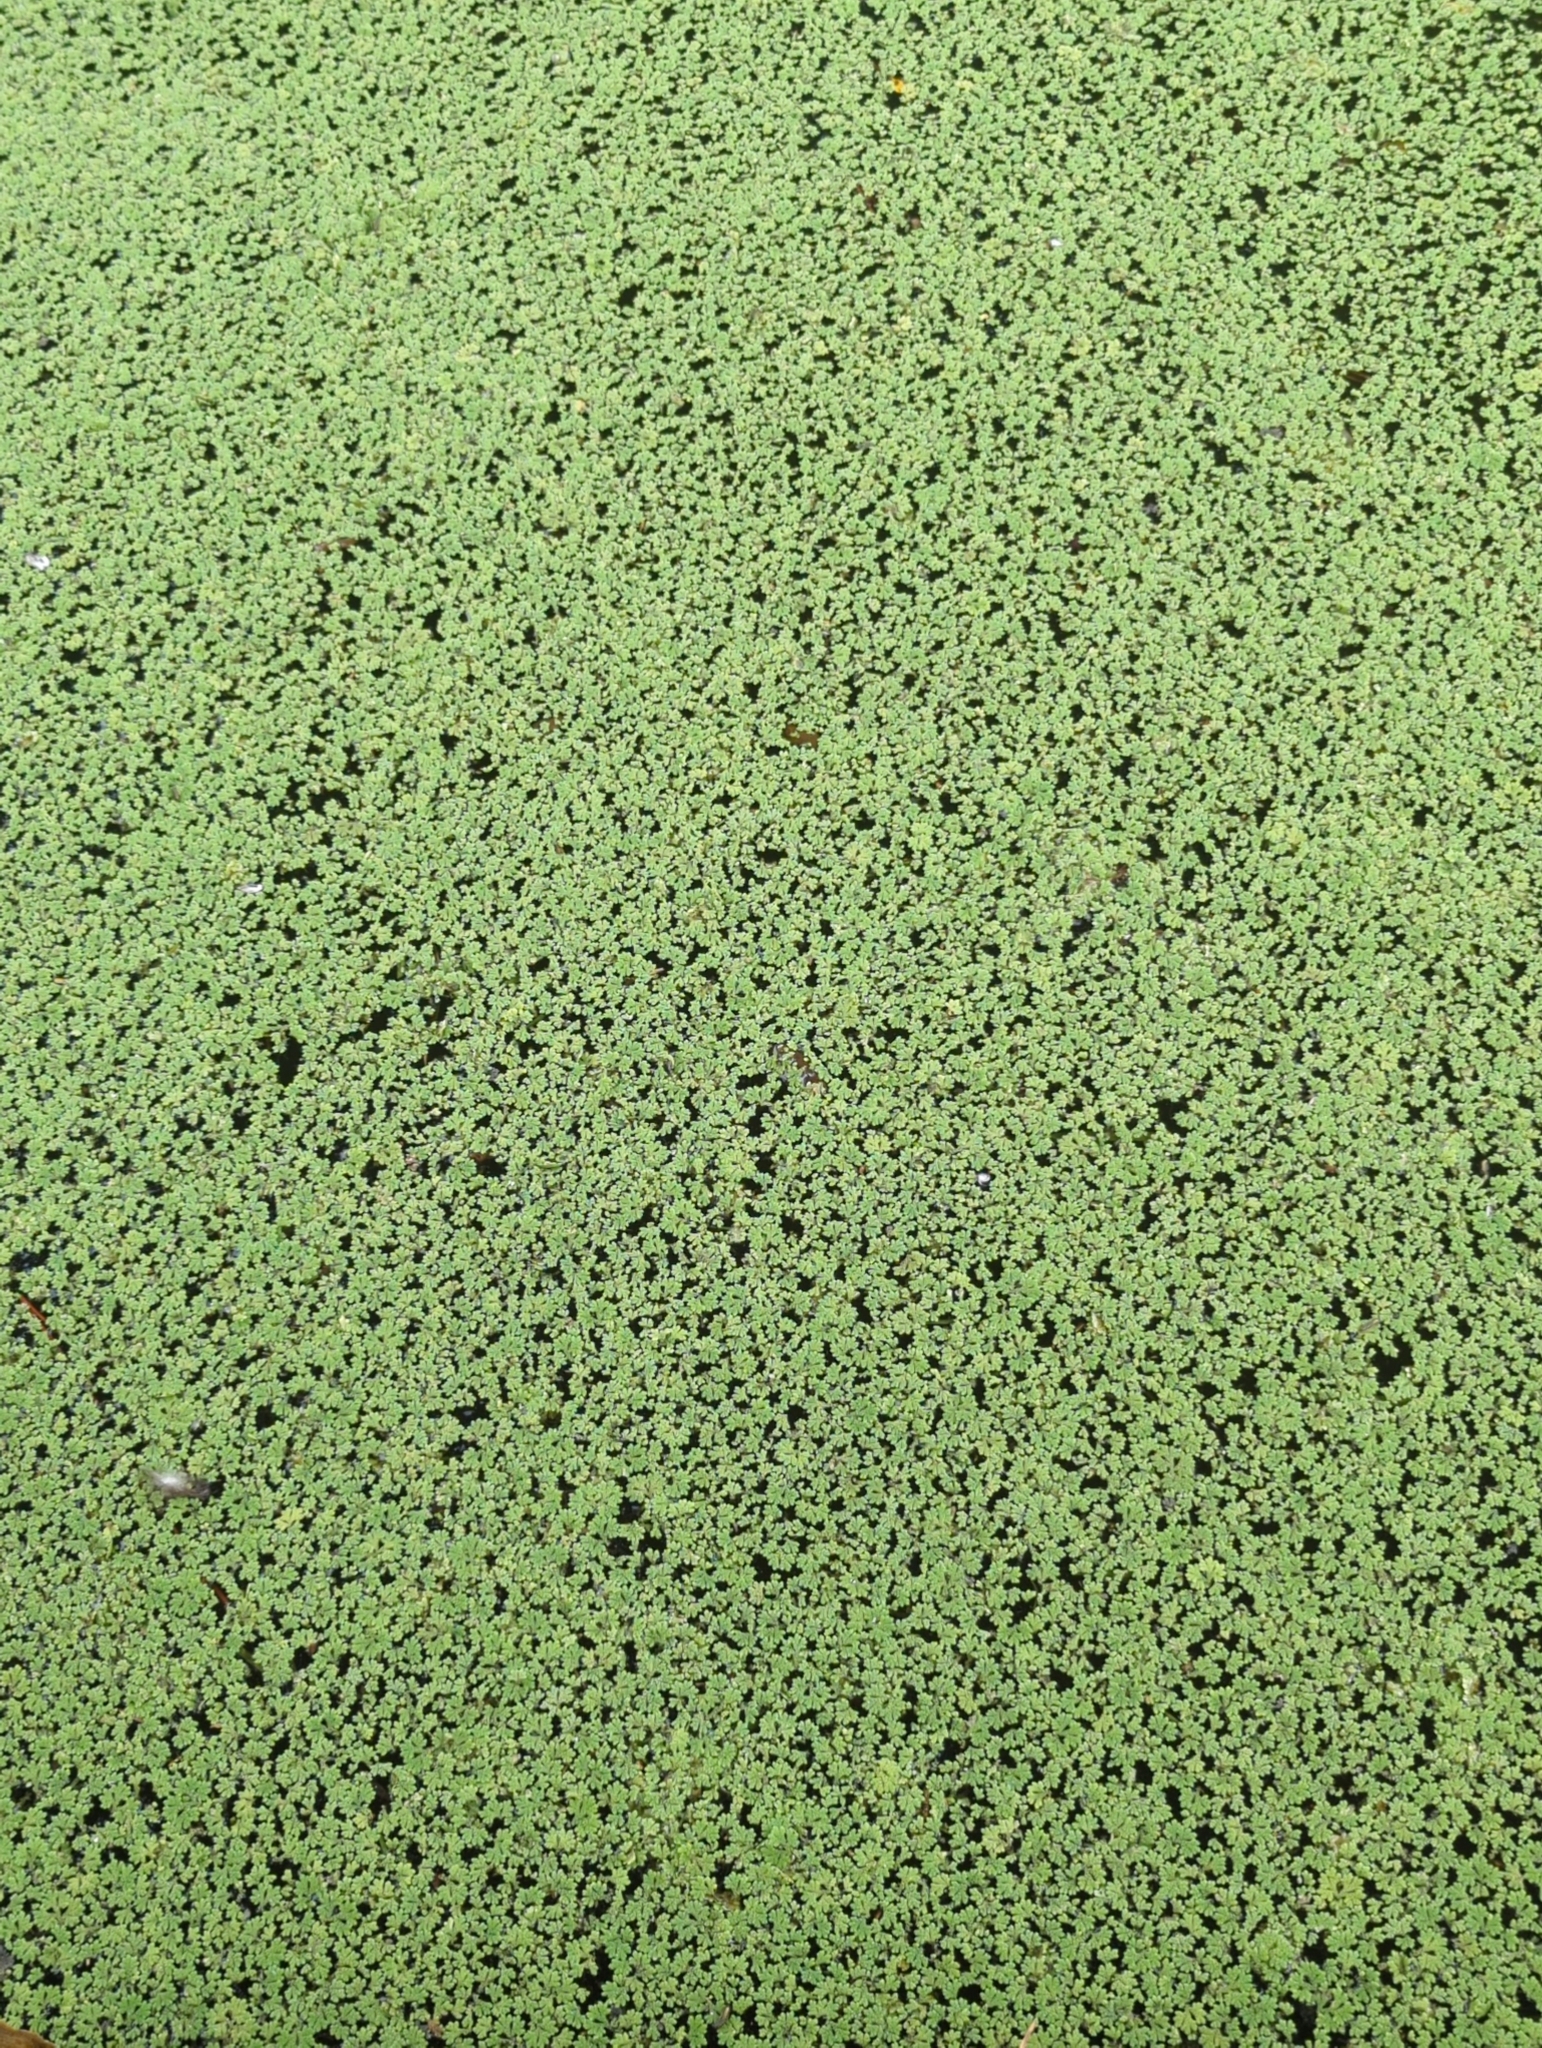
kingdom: Plantae
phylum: Tracheophyta
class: Polypodiopsida
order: Salviniales
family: Salviniaceae
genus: Azolla
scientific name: Azolla rubra
